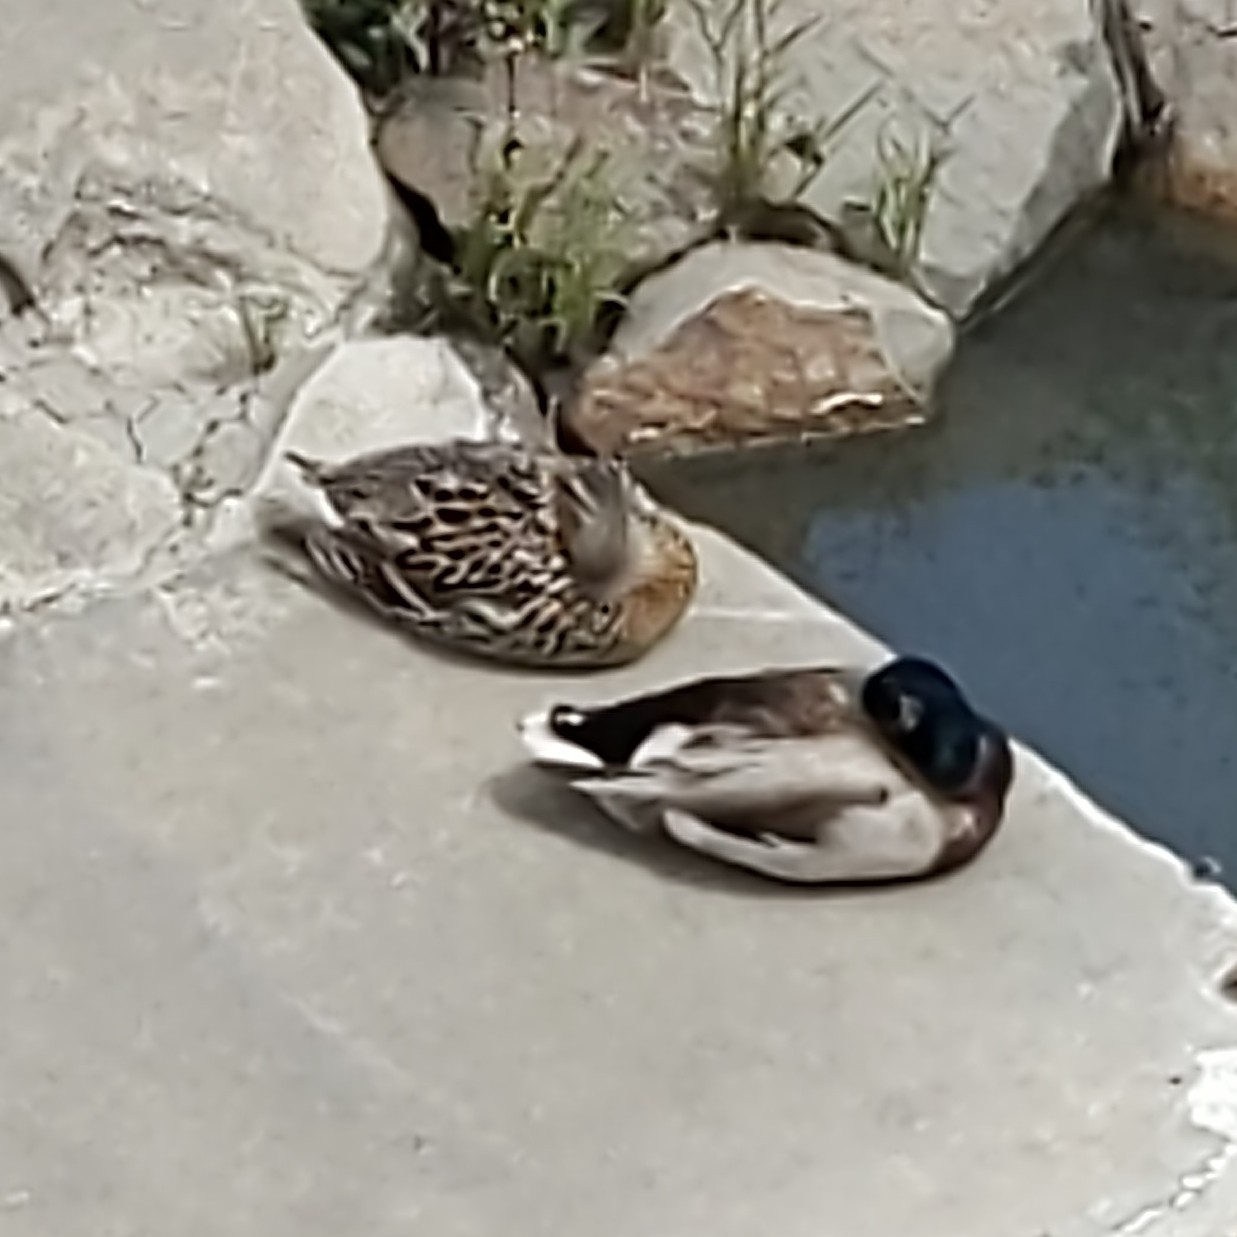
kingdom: Animalia
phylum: Chordata
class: Aves
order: Anseriformes
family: Anatidae
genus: Anas
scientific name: Anas platyrhynchos
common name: Mallard
